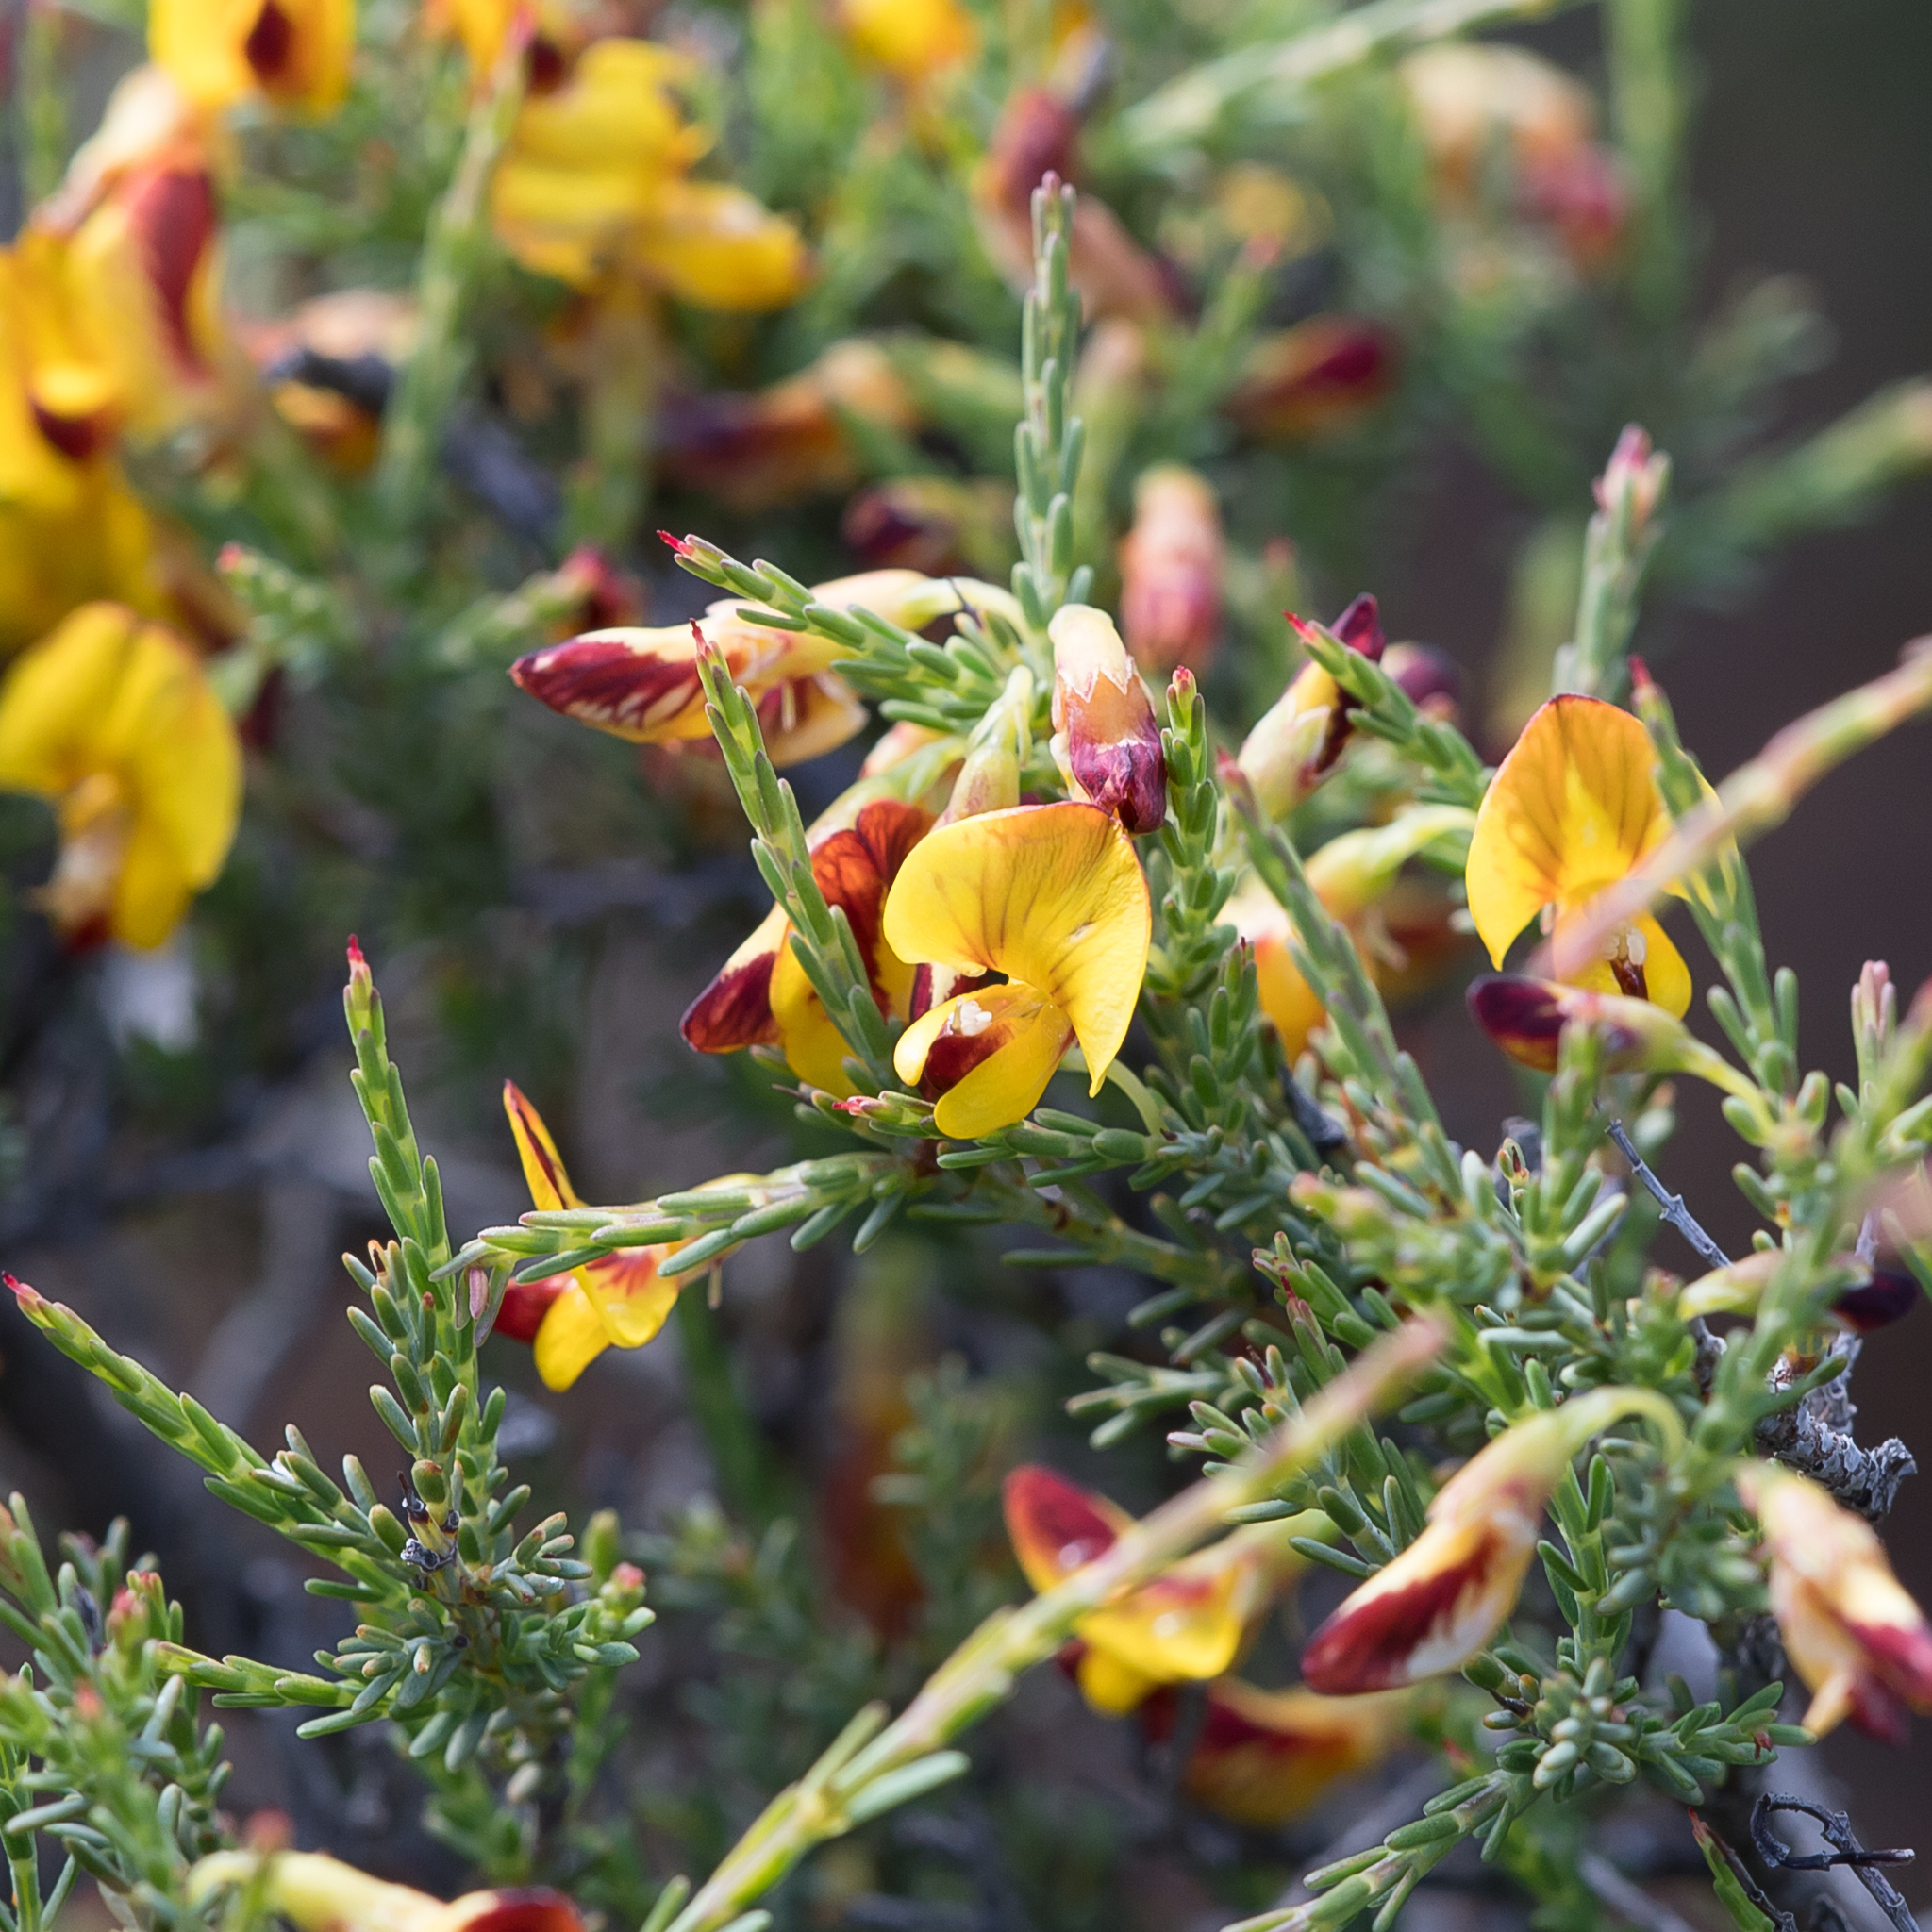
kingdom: Plantae
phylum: Tracheophyta
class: Magnoliopsida
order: Fabales
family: Fabaceae
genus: Eutaxia
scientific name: Eutaxia microphylla
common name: Mallee bush-pea
